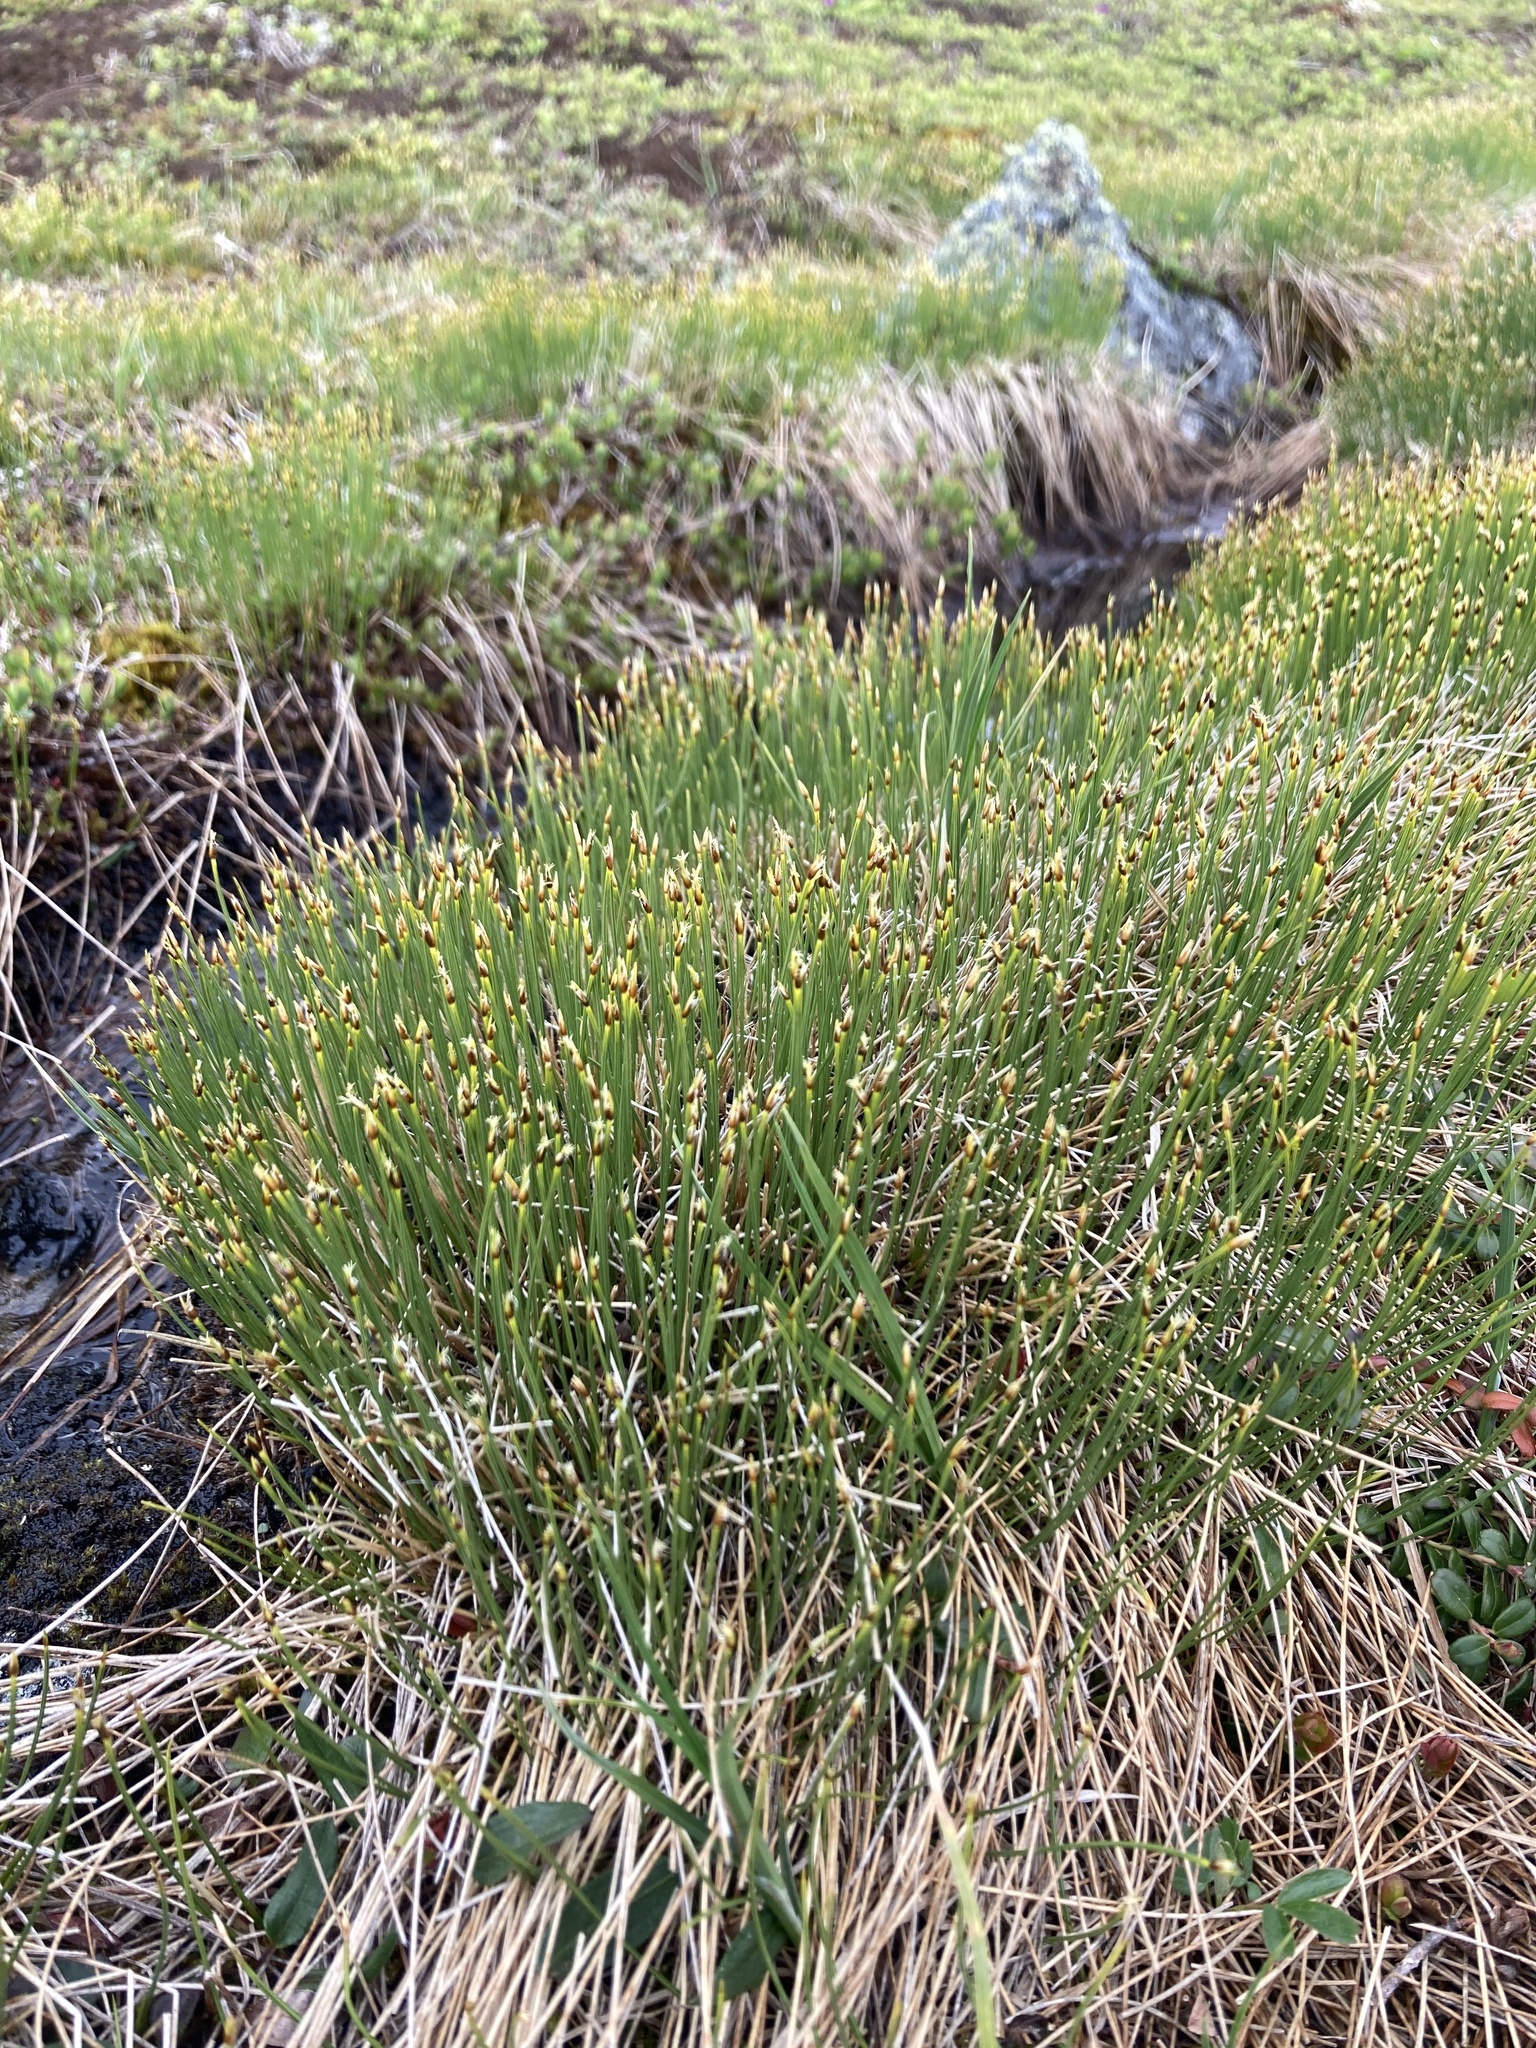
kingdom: Plantae
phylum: Tracheophyta
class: Liliopsida
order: Poales
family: Cyperaceae
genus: Trichophorum
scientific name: Trichophorum cespitosum
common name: Cespitose bulrush
